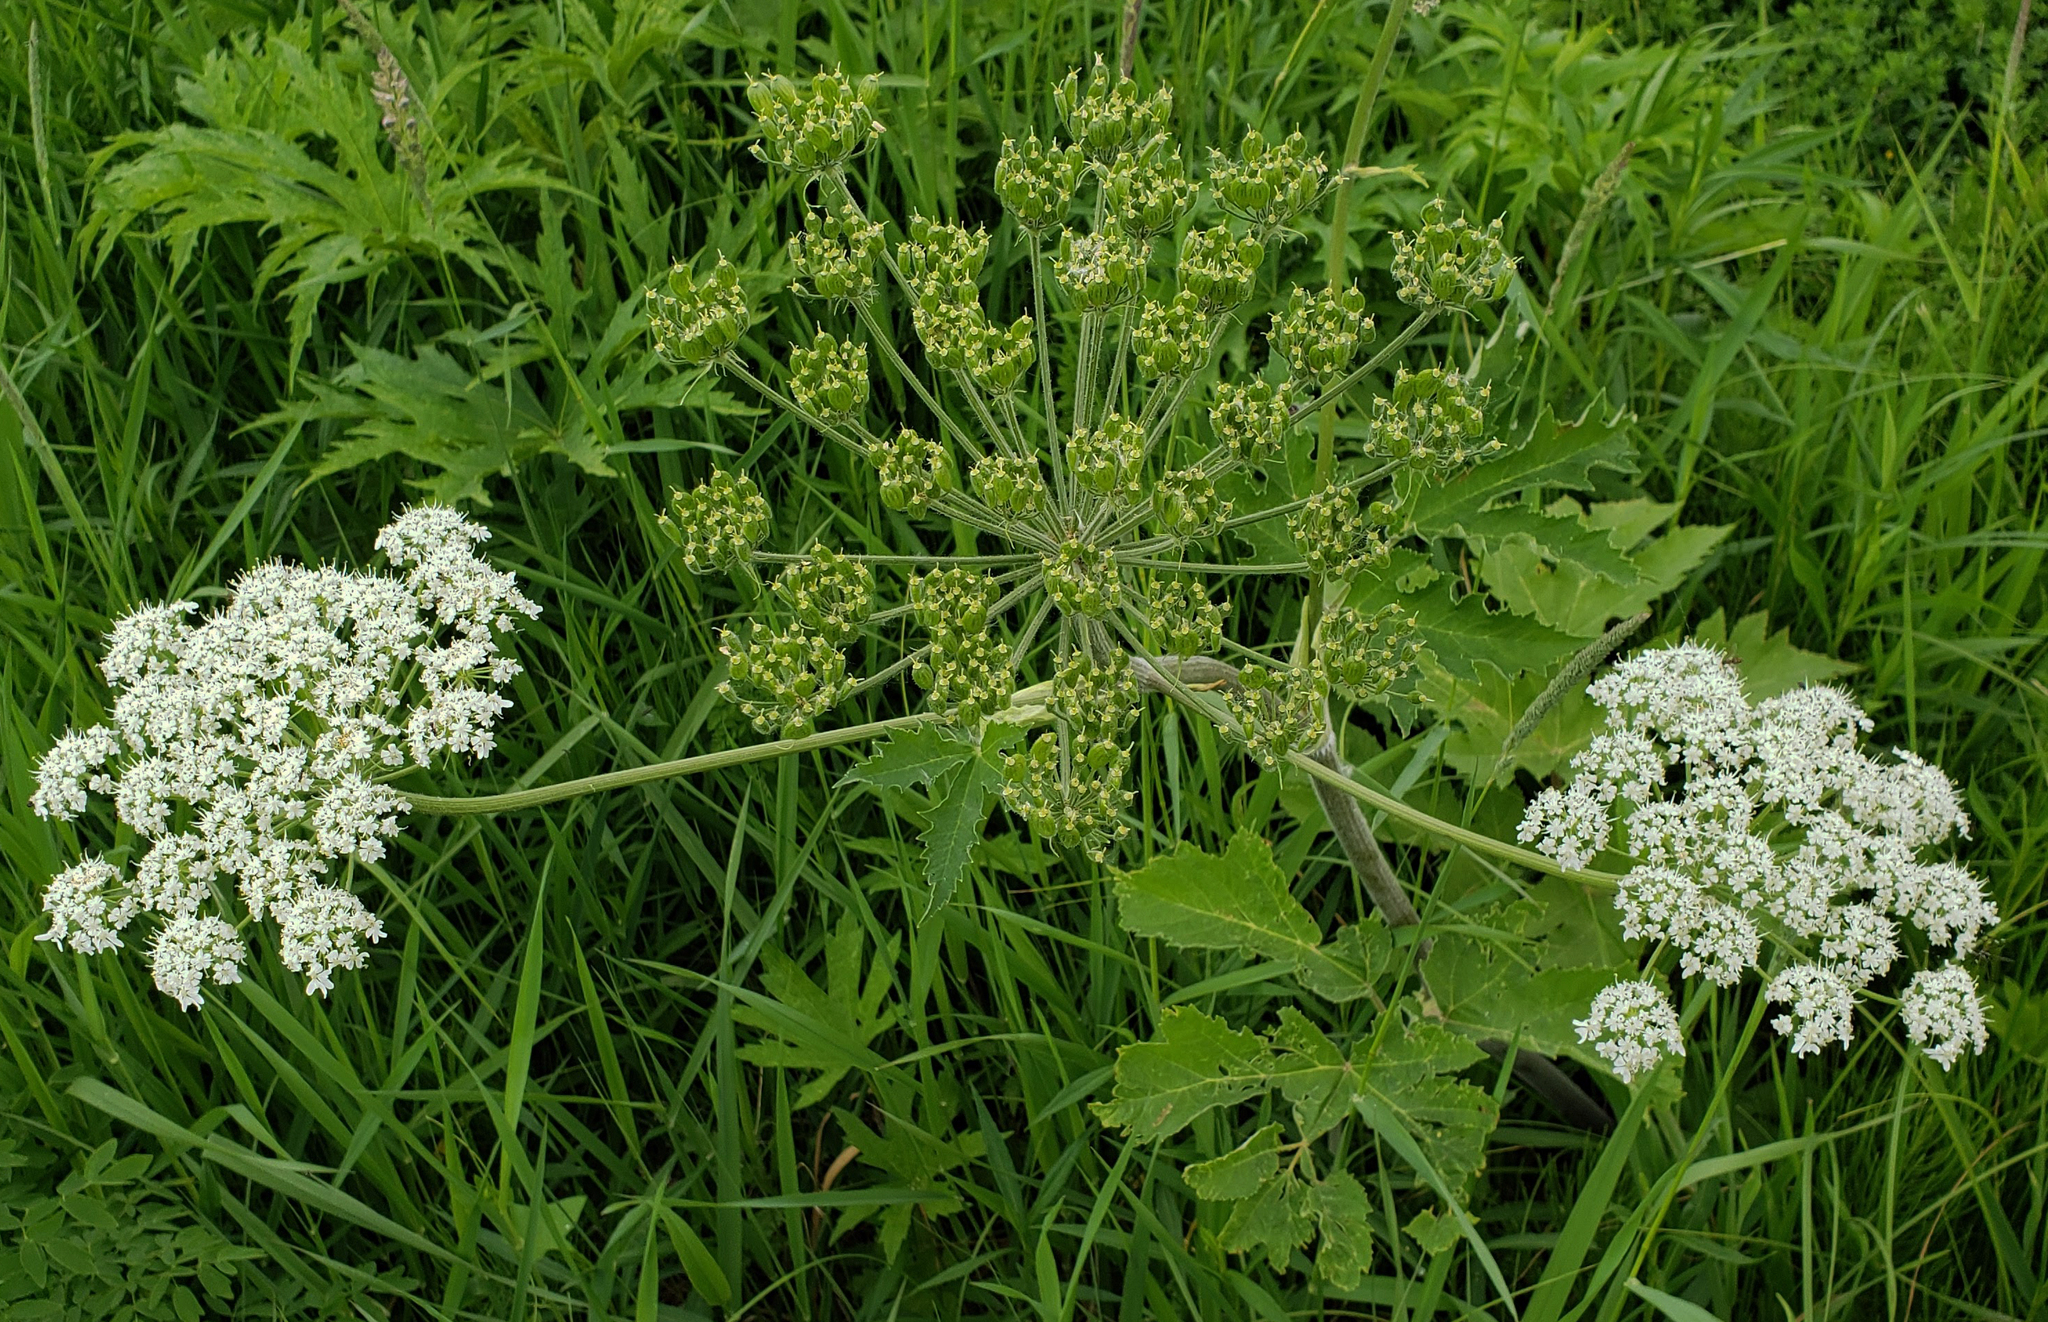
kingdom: Plantae
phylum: Tracheophyta
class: Magnoliopsida
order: Apiales
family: Apiaceae
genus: Heracleum
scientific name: Heracleum maximum
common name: American cow parsnip
